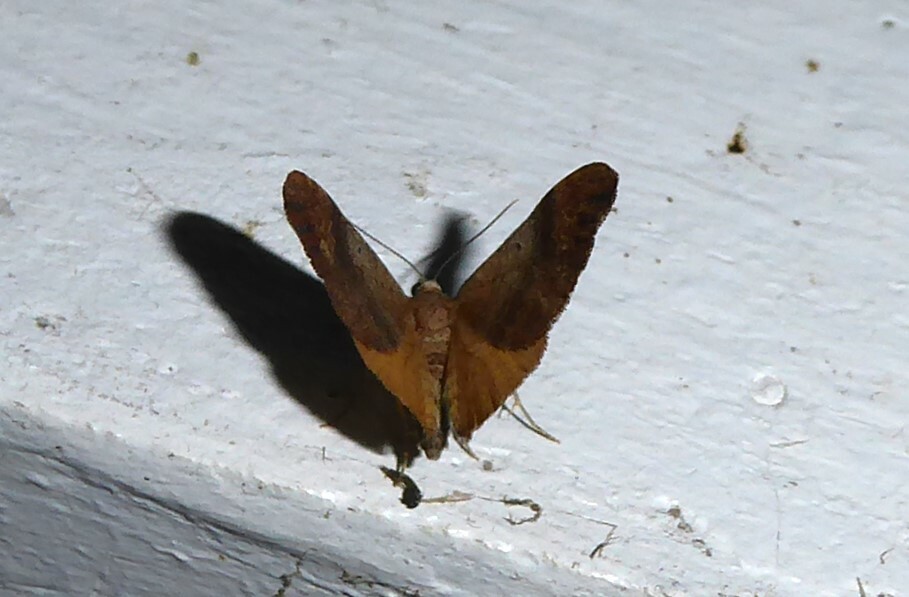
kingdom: Animalia
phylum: Arthropoda
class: Insecta
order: Lepidoptera
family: Geometridae
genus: Homodotis
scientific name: Homodotis megaspilata
